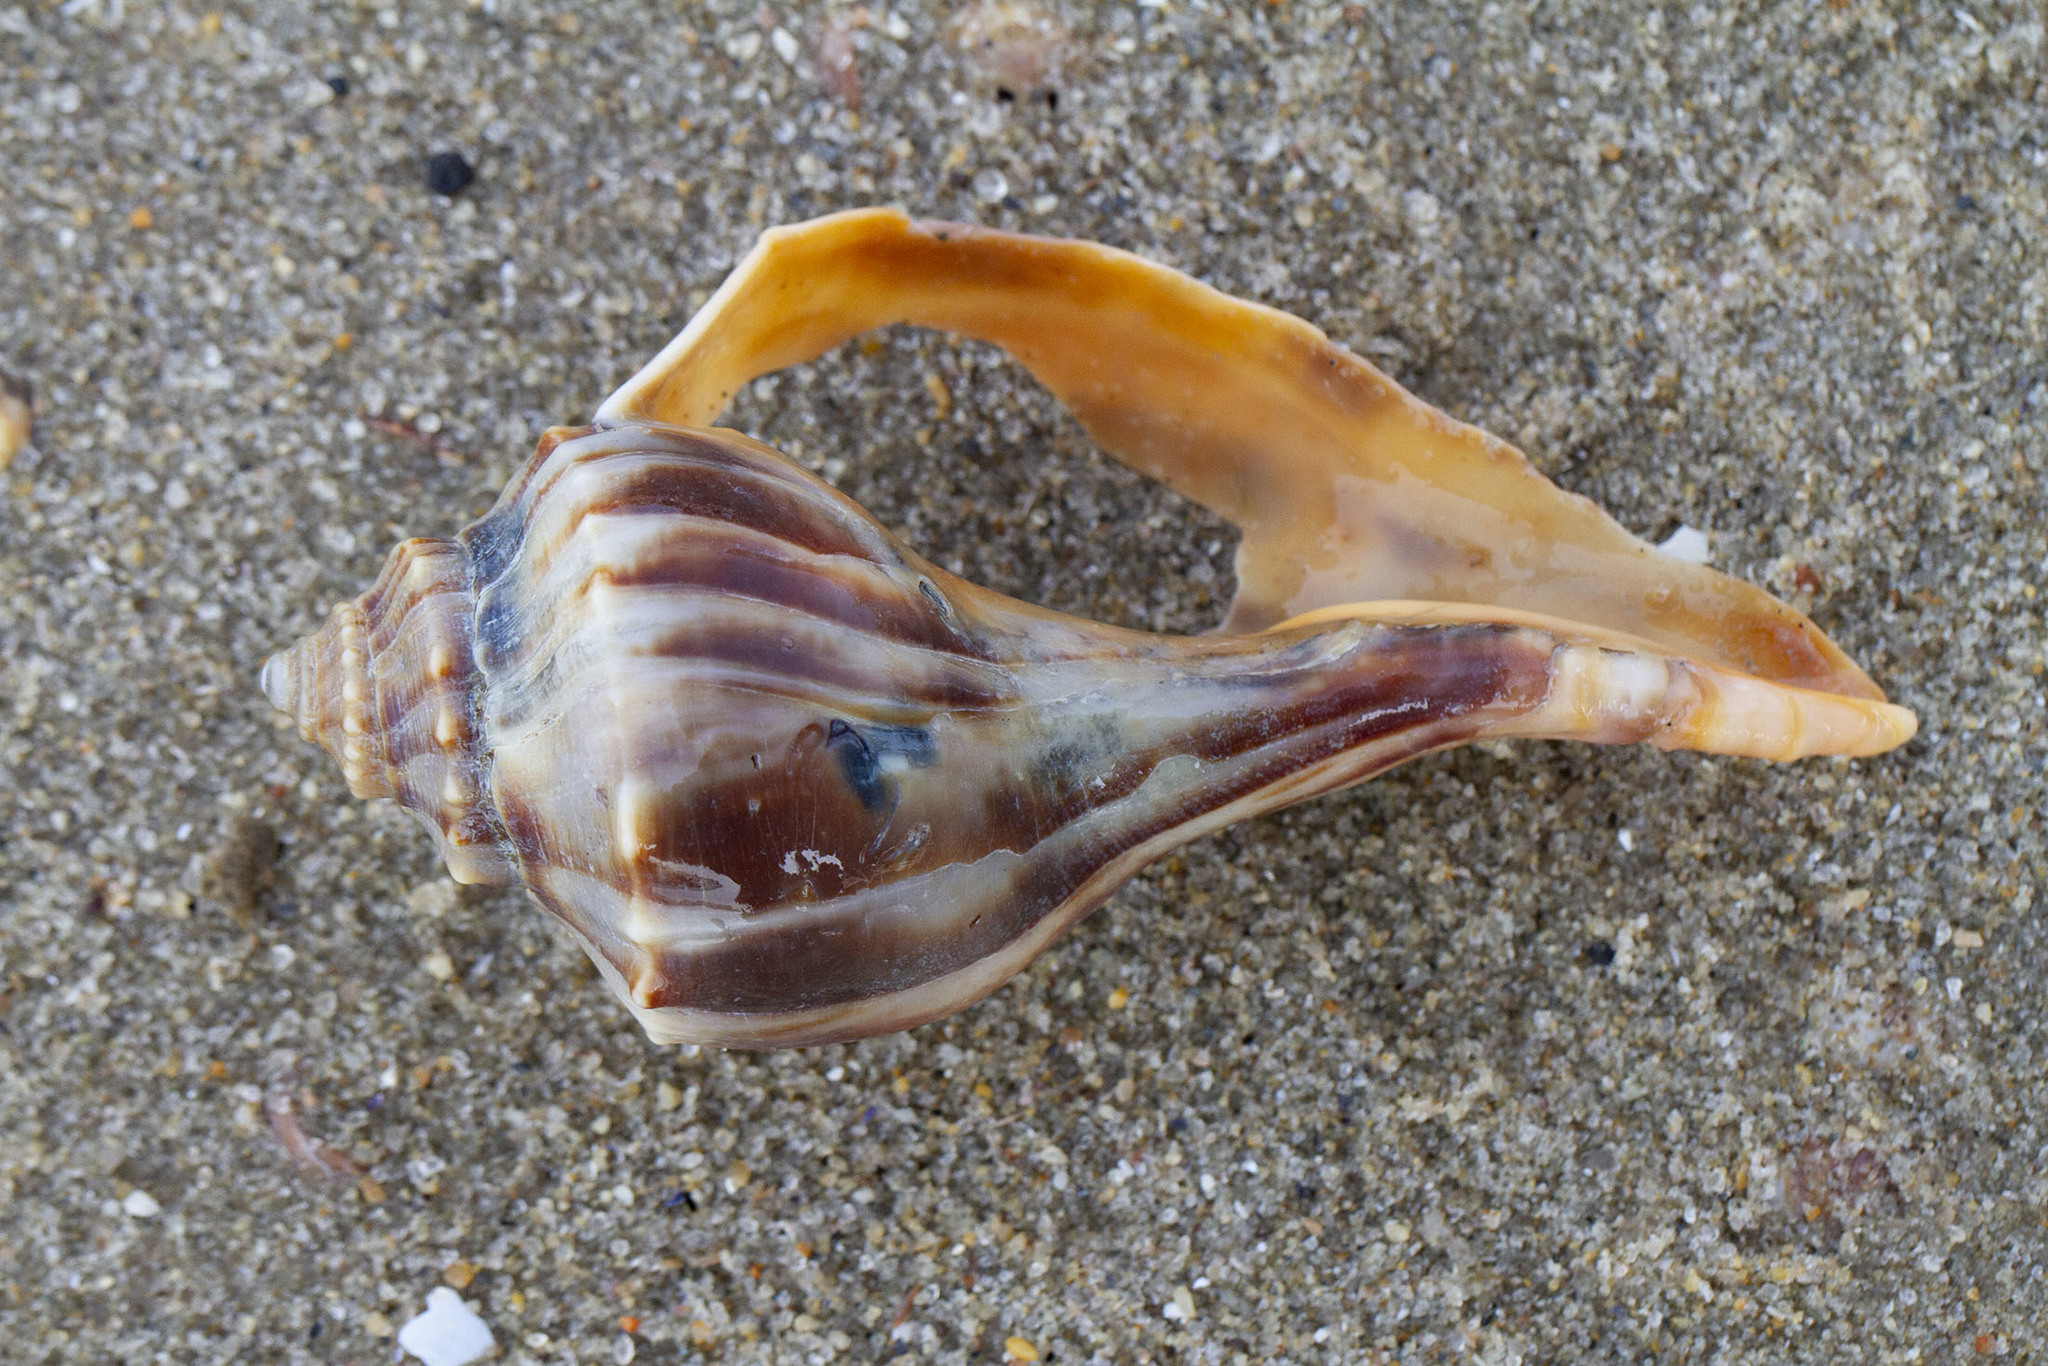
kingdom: Animalia
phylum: Mollusca
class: Gastropoda
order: Neogastropoda
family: Busyconidae
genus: Busycon
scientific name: Busycon carica
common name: Knobbed whelk
